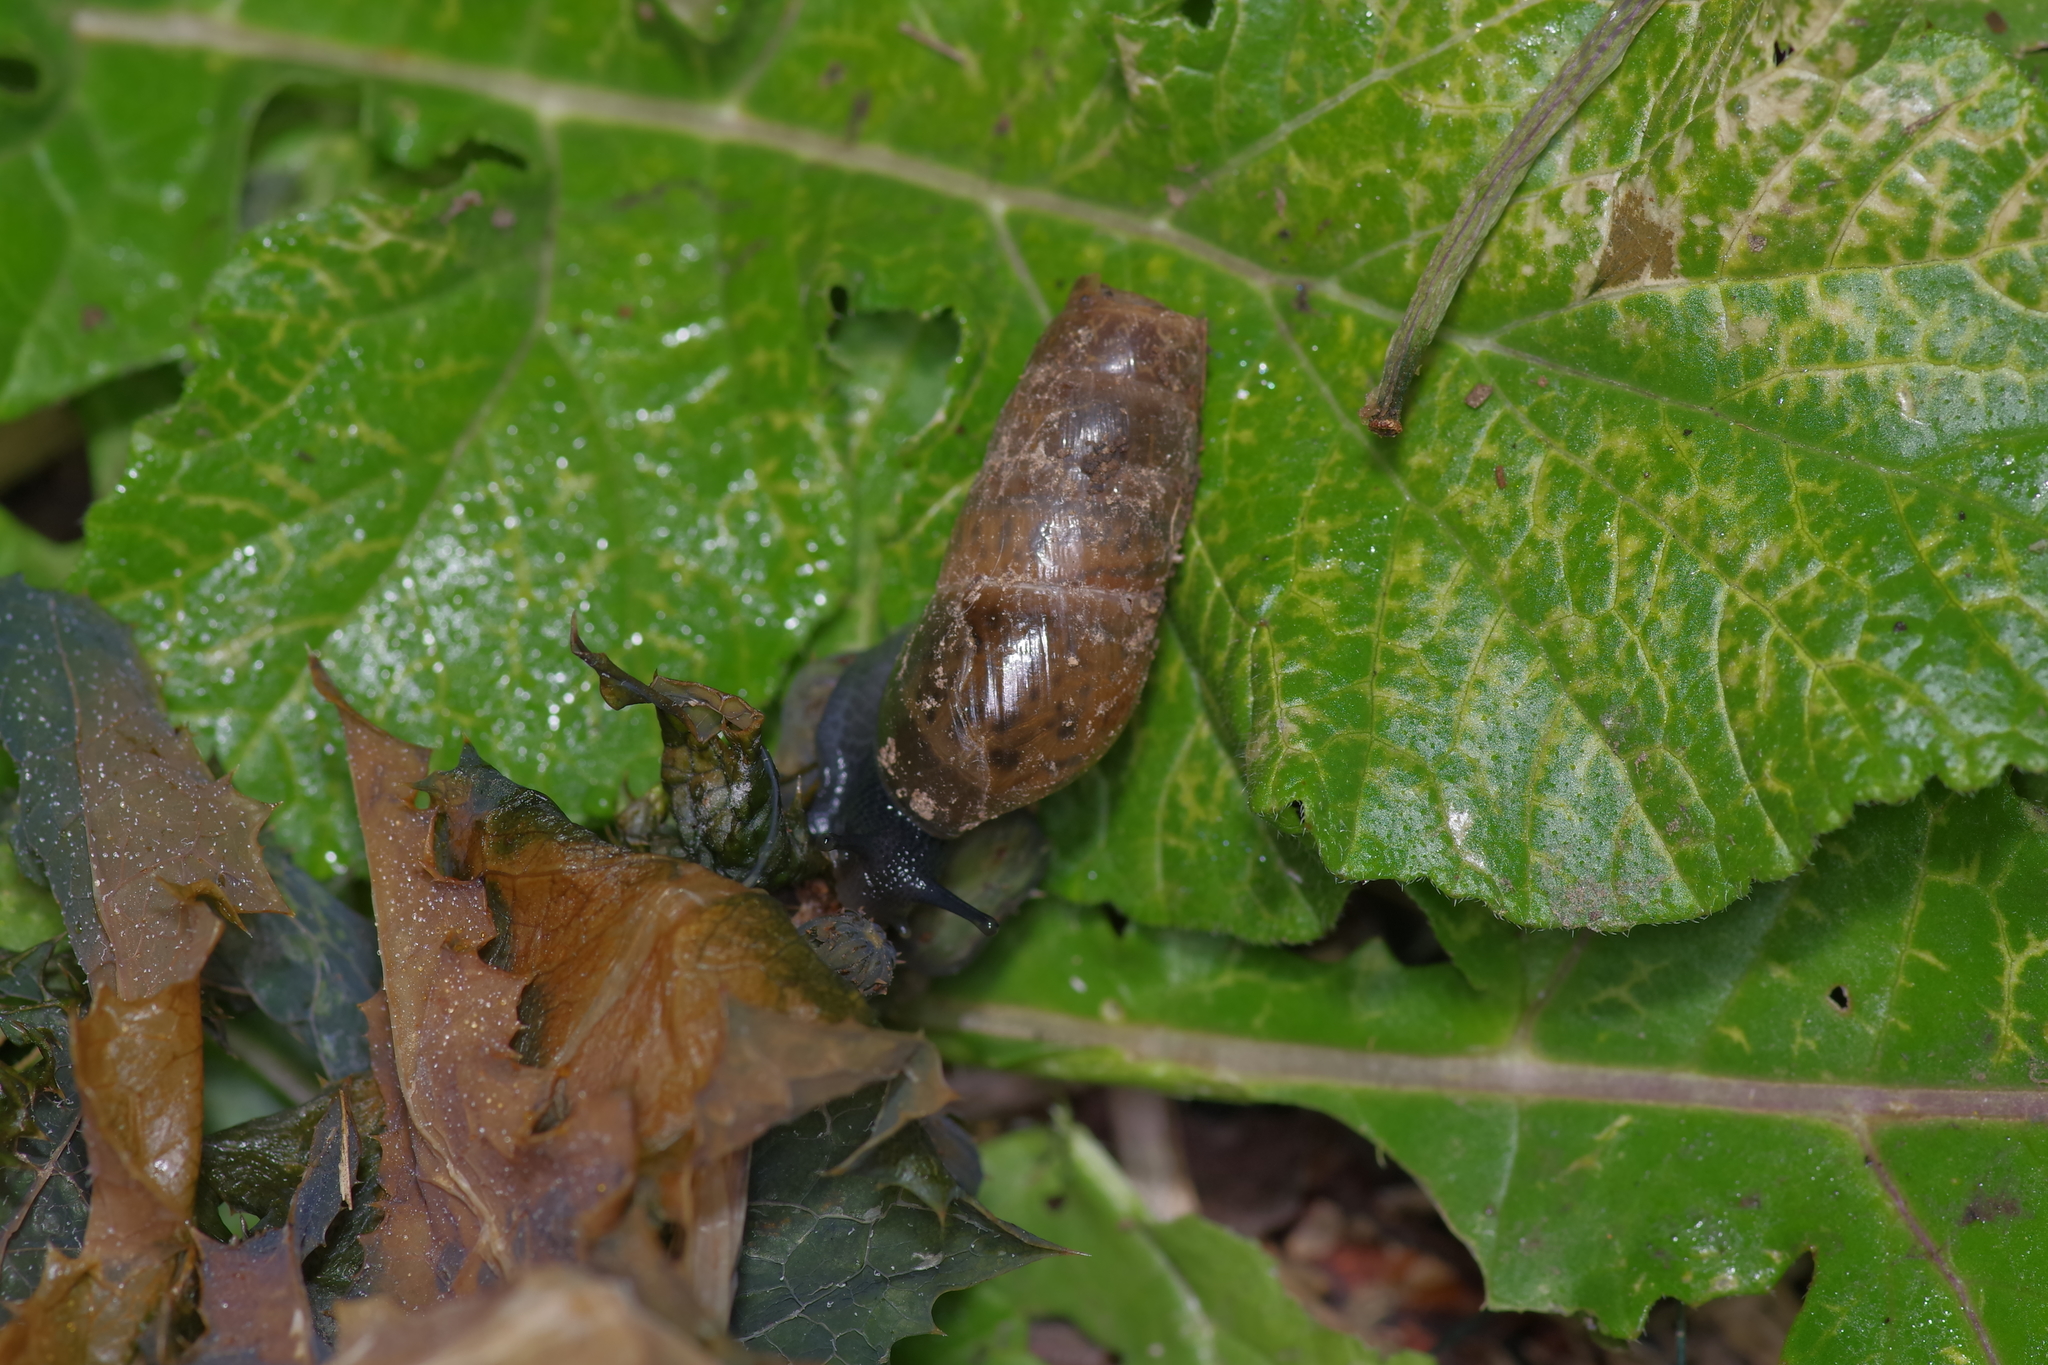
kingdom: Animalia
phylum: Mollusca
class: Gastropoda
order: Stylommatophora
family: Achatinidae
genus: Rumina
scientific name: Rumina decollata
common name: Decollate snail
